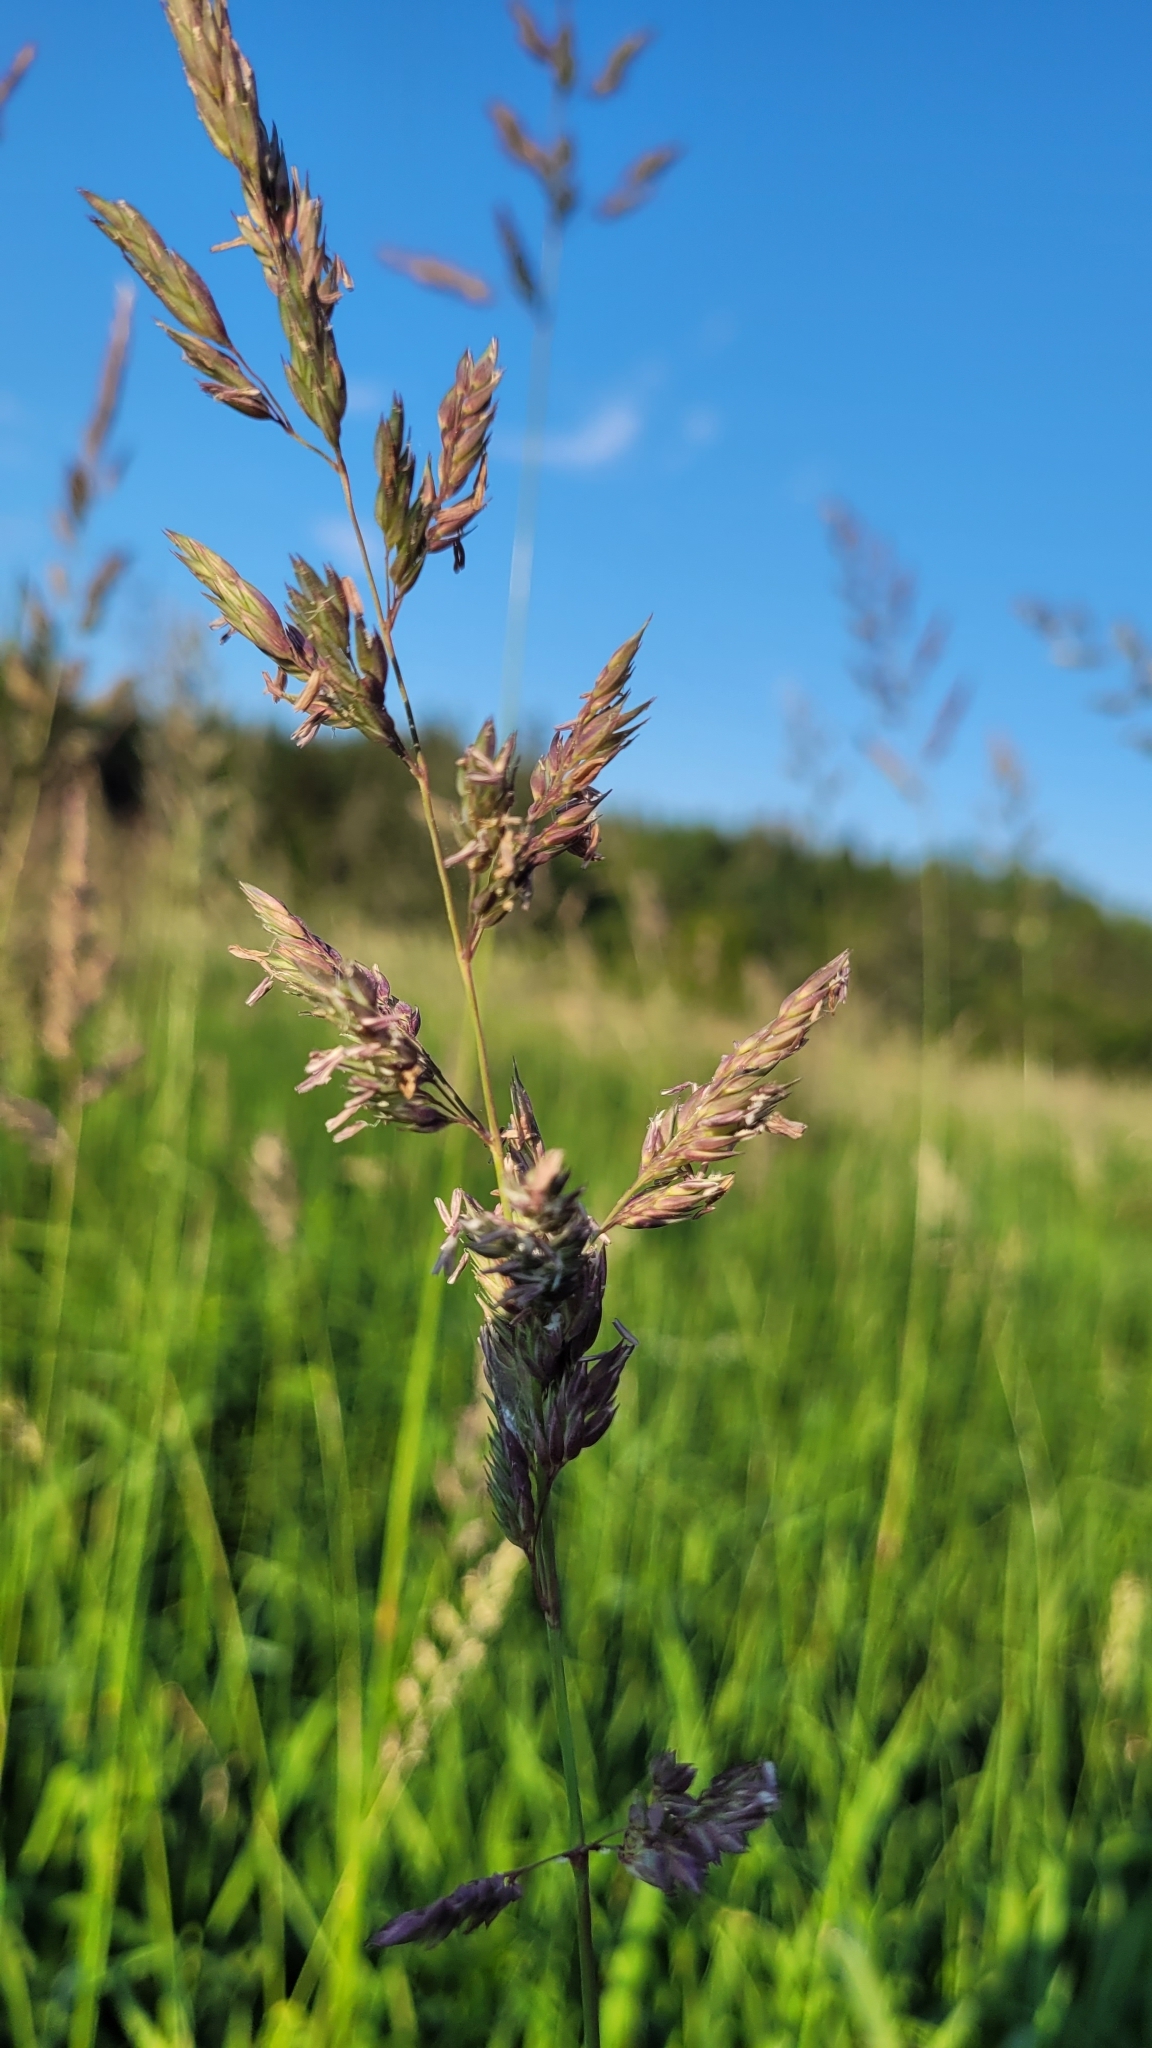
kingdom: Plantae
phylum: Tracheophyta
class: Liliopsida
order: Poales
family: Poaceae
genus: Phalaris
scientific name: Phalaris arundinacea
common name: Reed canary-grass
